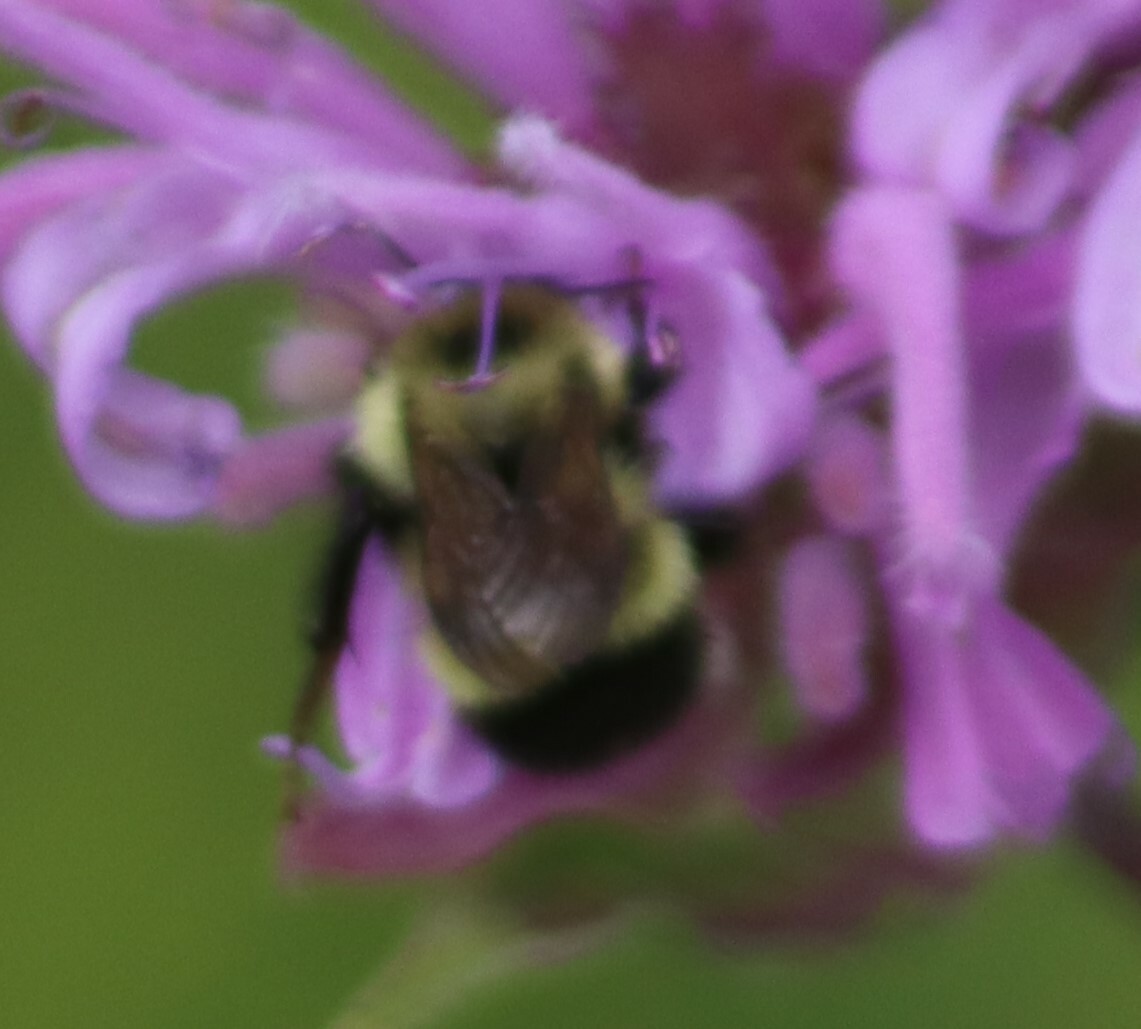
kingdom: Animalia
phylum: Arthropoda
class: Insecta
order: Hymenoptera
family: Apidae
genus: Pyrobombus
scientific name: Pyrobombus
